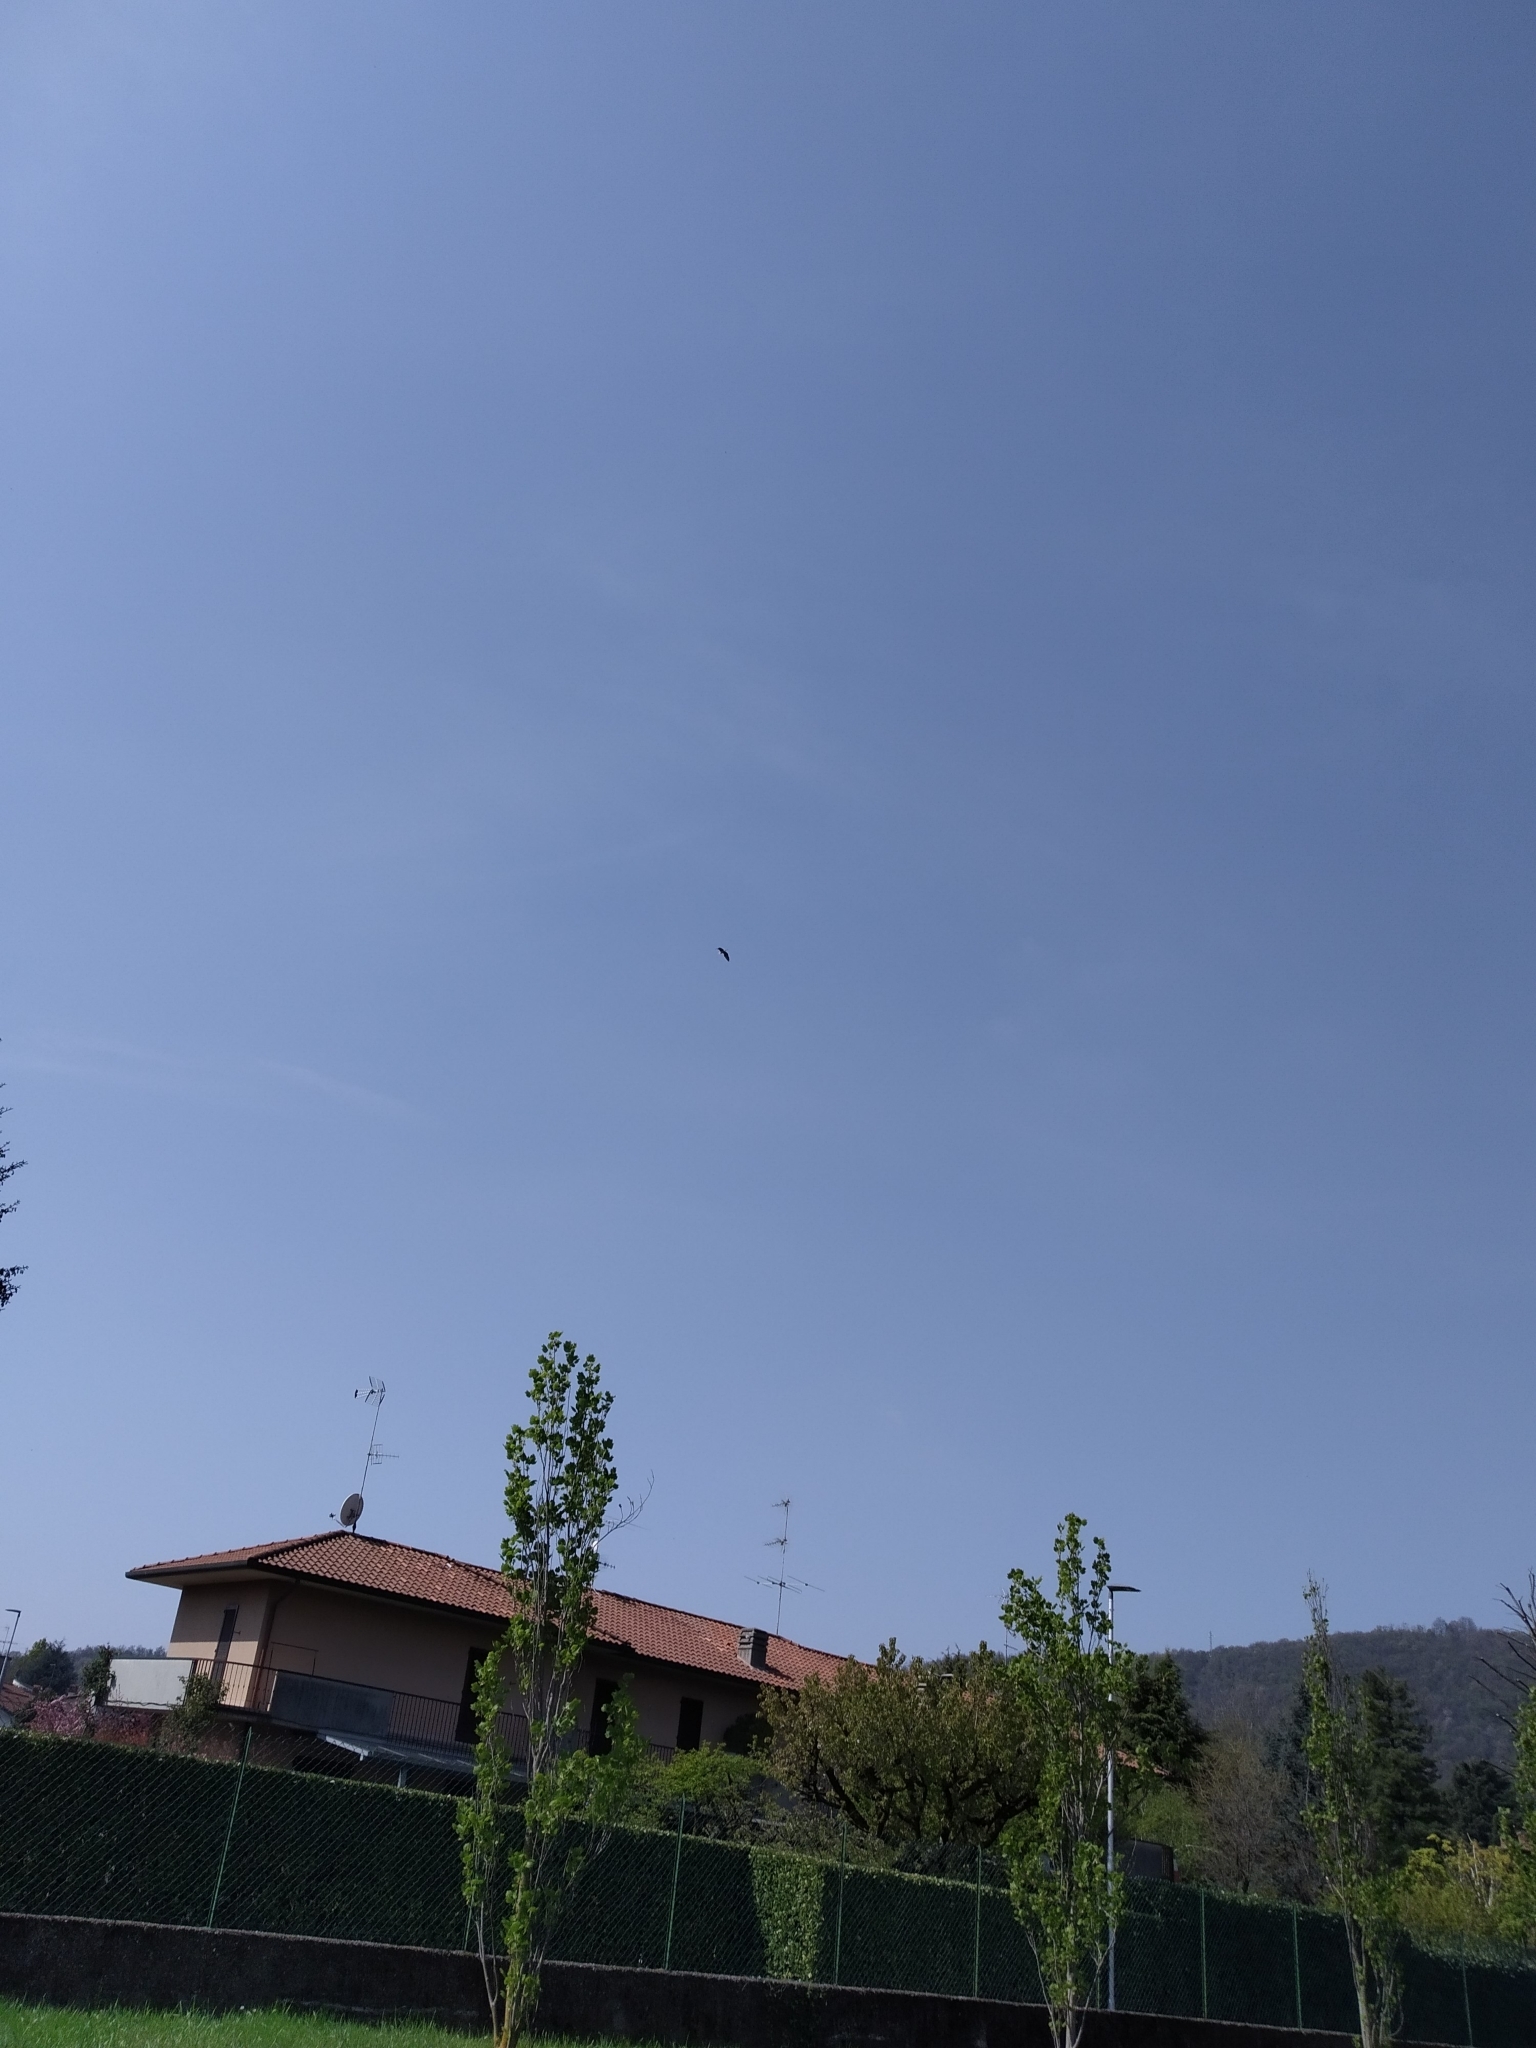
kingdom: Animalia
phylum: Chordata
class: Aves
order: Pelecaniformes
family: Ardeidae
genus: Ardea
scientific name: Ardea cinerea
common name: Grey heron
